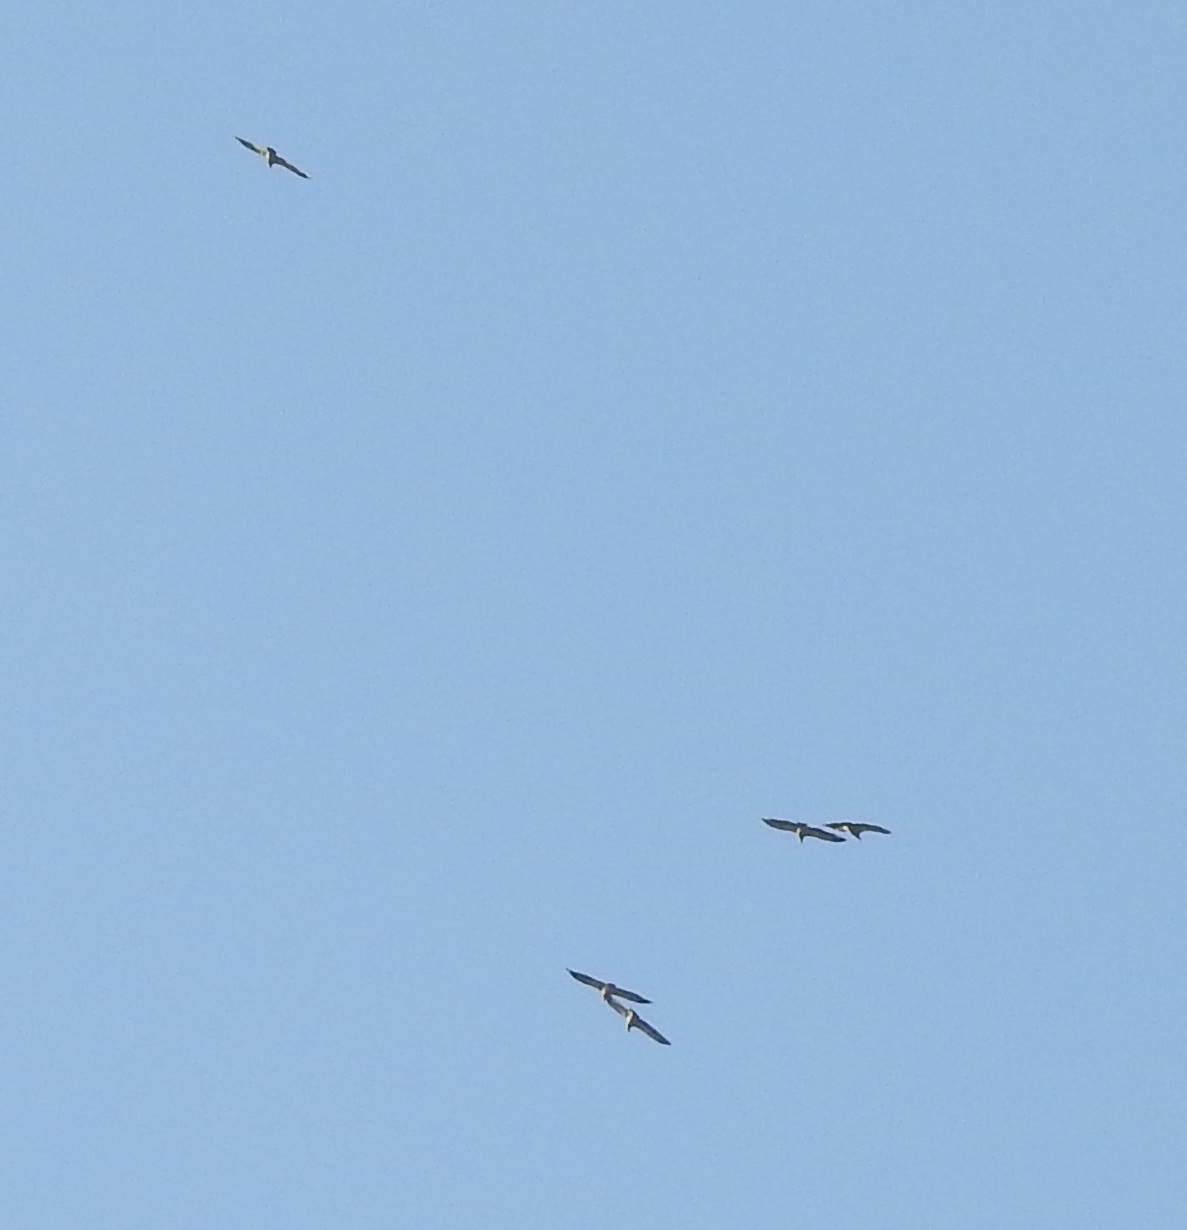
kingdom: Animalia
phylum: Chordata
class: Aves
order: Accipitriformes
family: Accipitridae
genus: Gyps
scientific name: Gyps fulvus
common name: Griffon vulture
